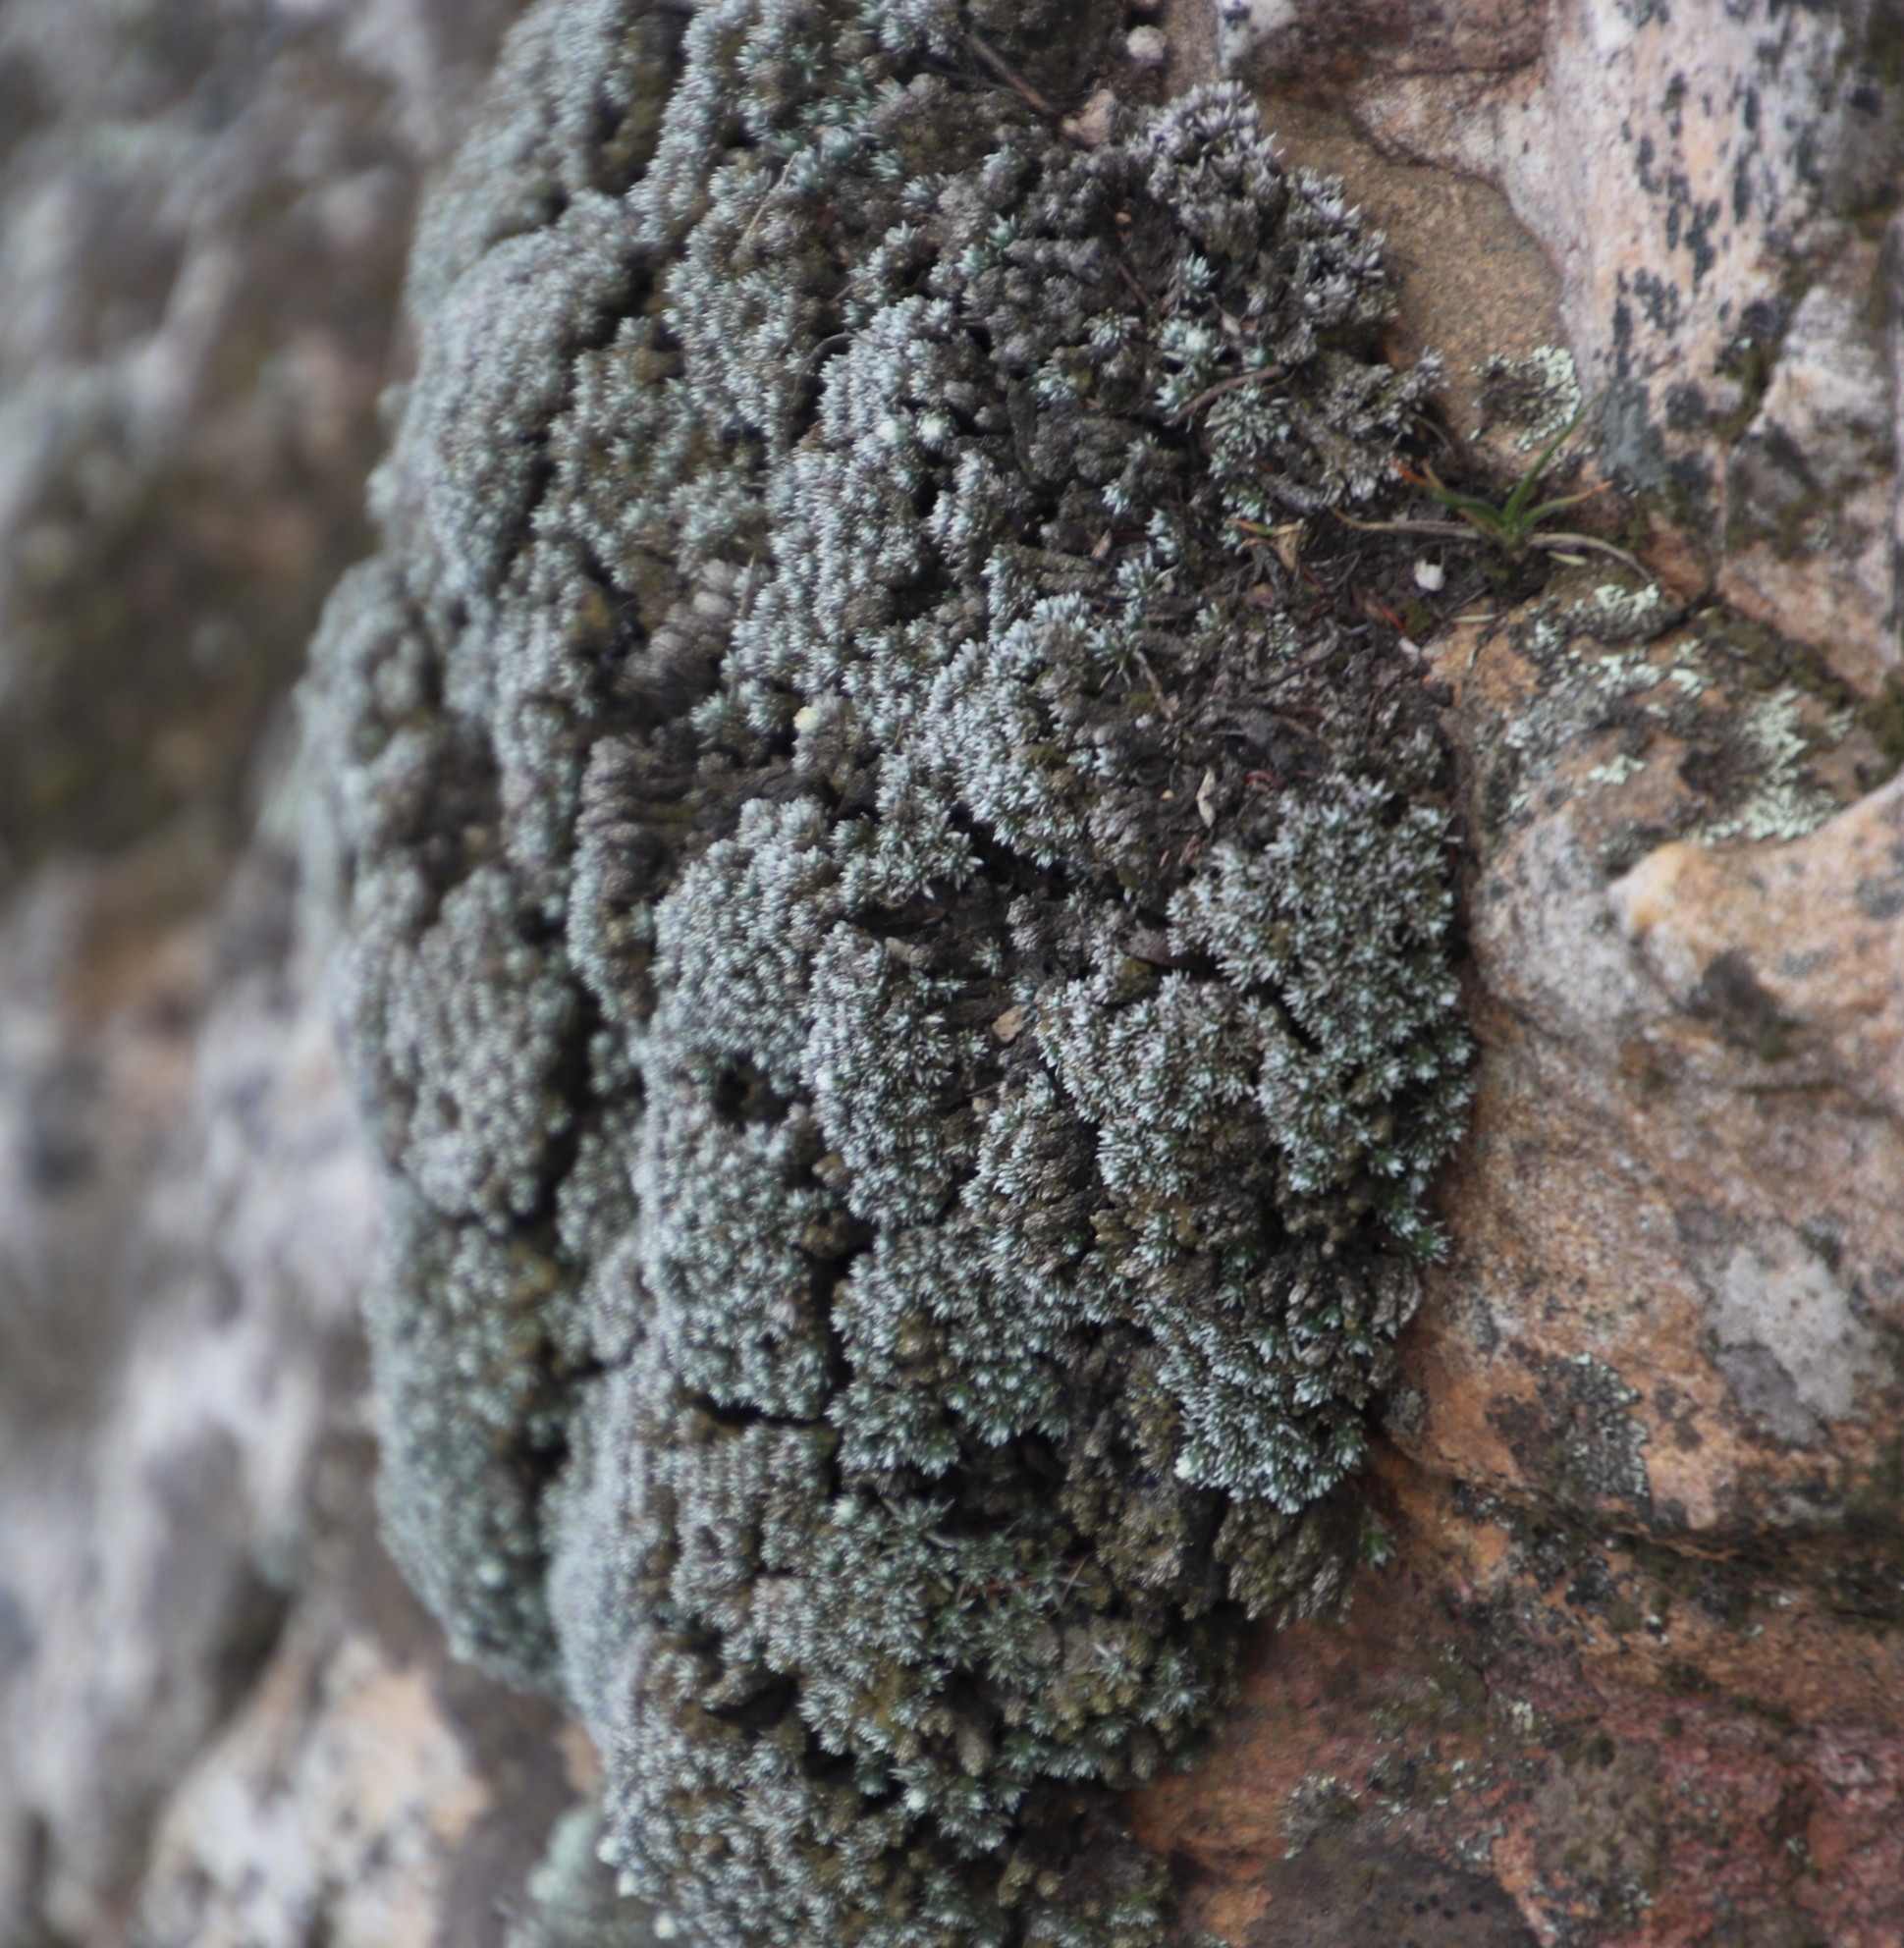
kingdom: Plantae
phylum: Tracheophyta
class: Magnoliopsida
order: Asterales
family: Asteraceae
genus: Muscosomorphe
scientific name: Muscosomorphe aretioides
